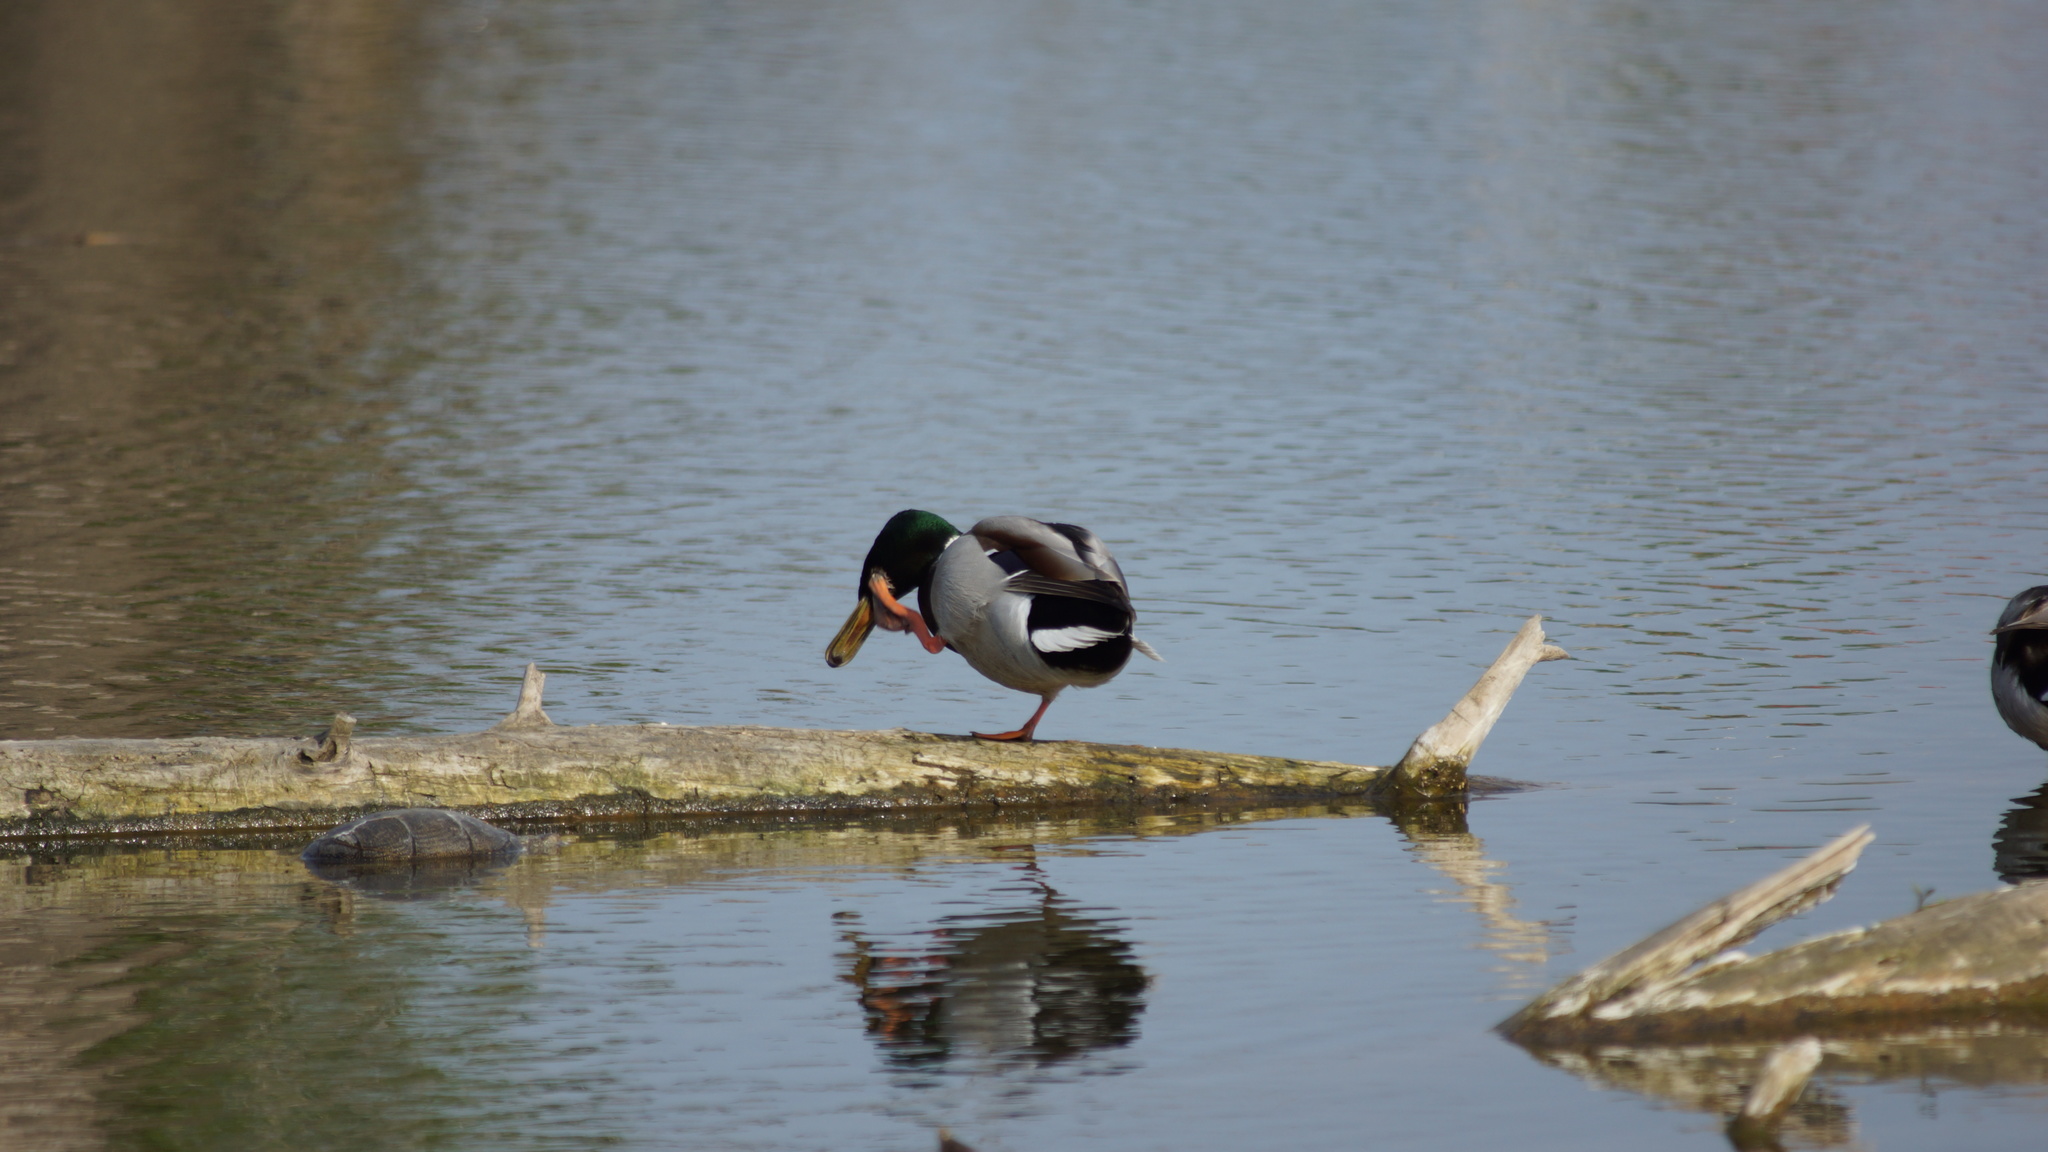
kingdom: Animalia
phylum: Chordata
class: Aves
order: Anseriformes
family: Anatidae
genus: Anas
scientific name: Anas platyrhynchos
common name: Mallard
